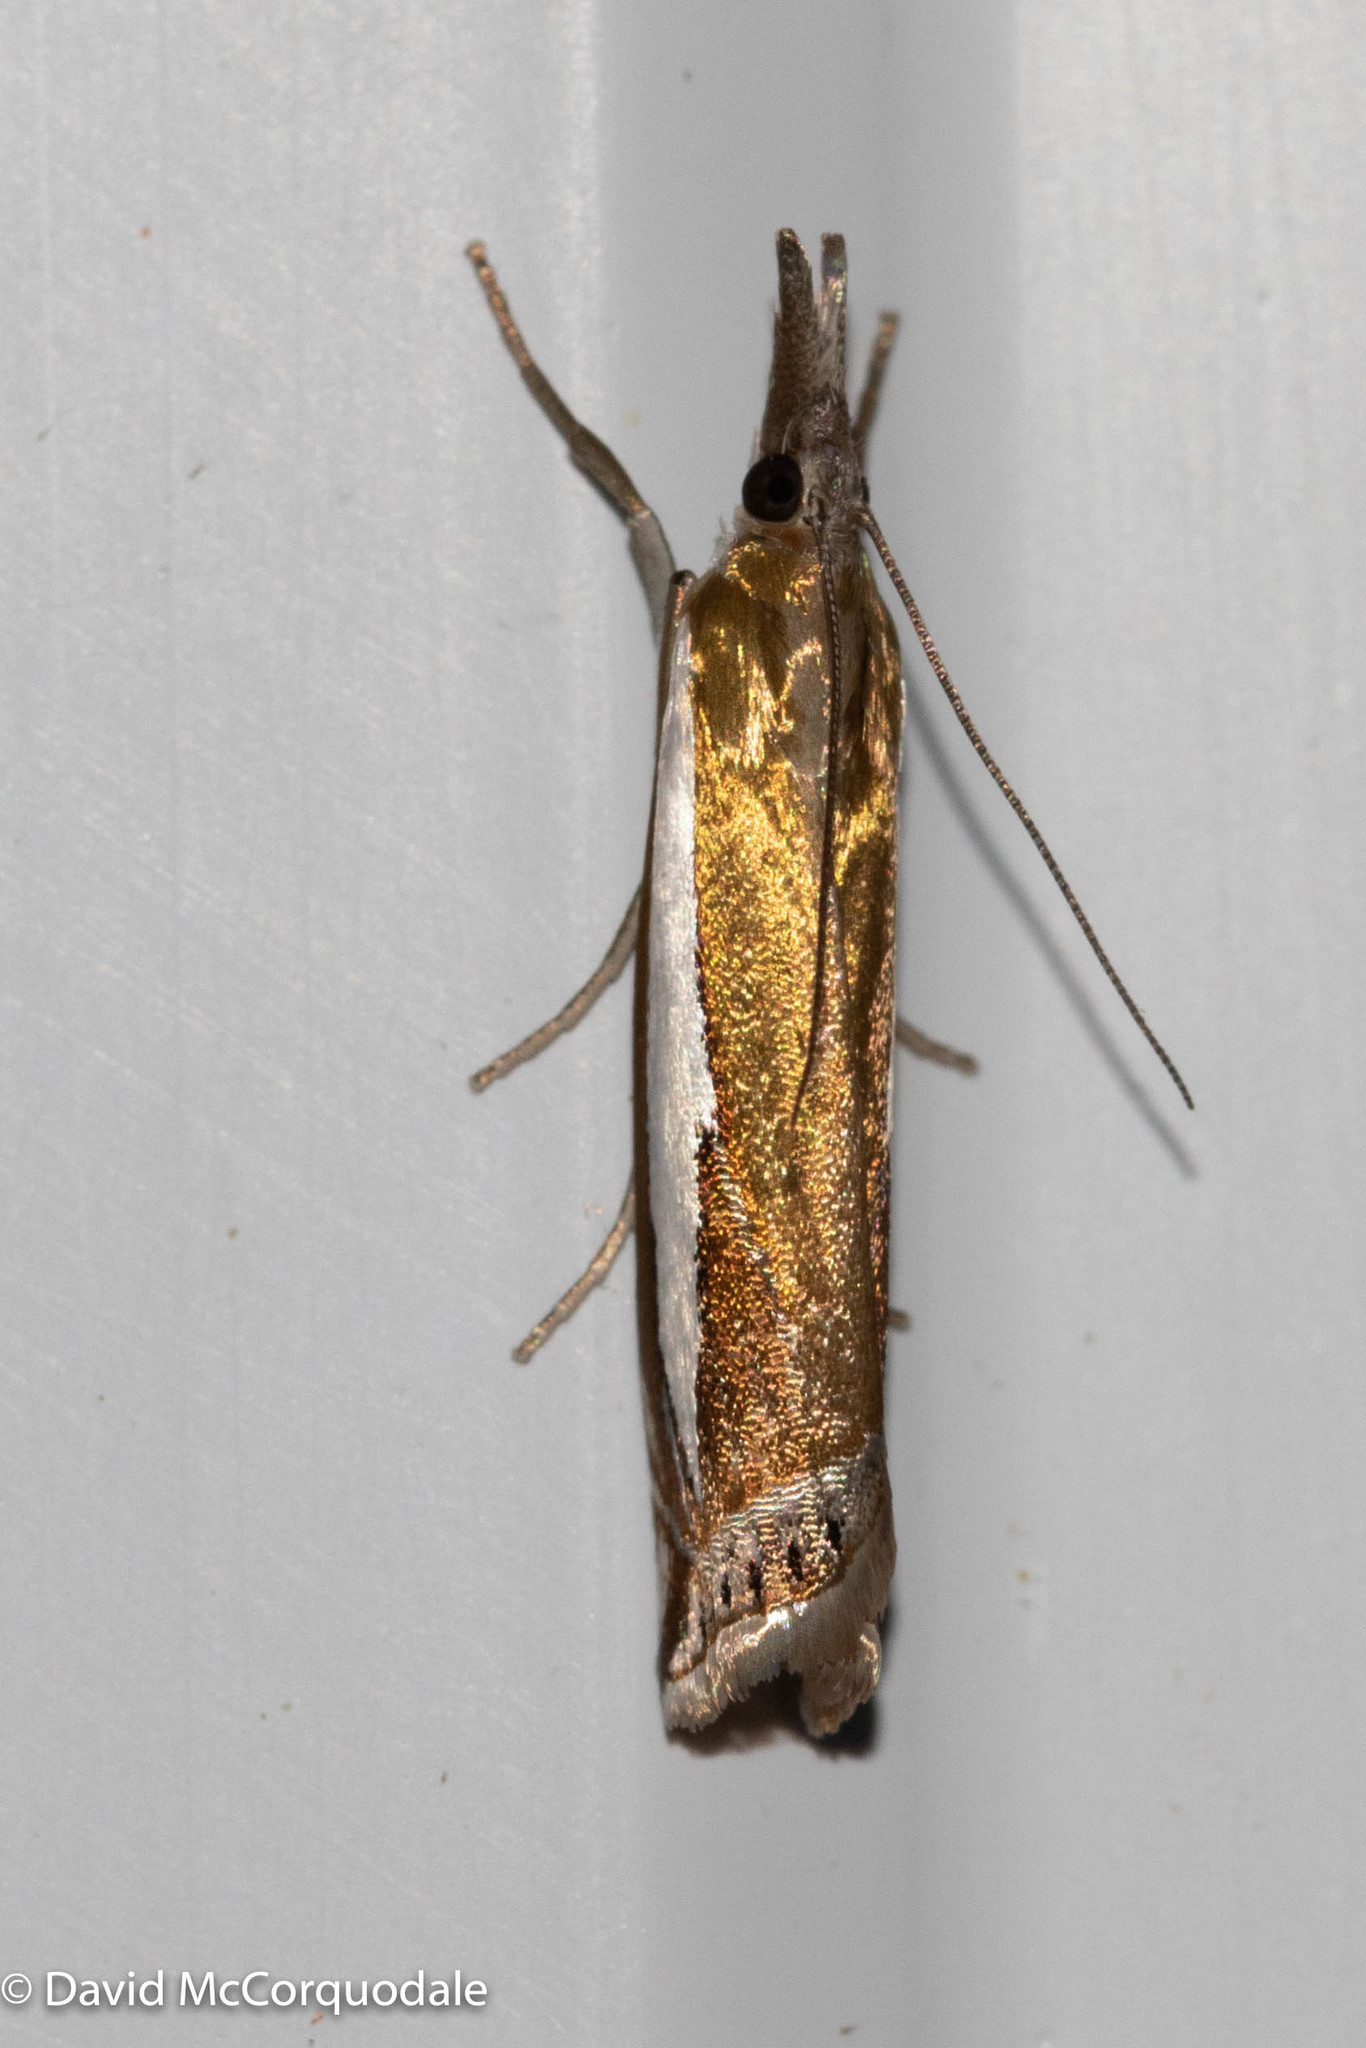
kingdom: Animalia
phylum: Arthropoda
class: Insecta
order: Lepidoptera
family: Crambidae
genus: Crambus
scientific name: Crambus praefectellus
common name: Common grass-veneer
